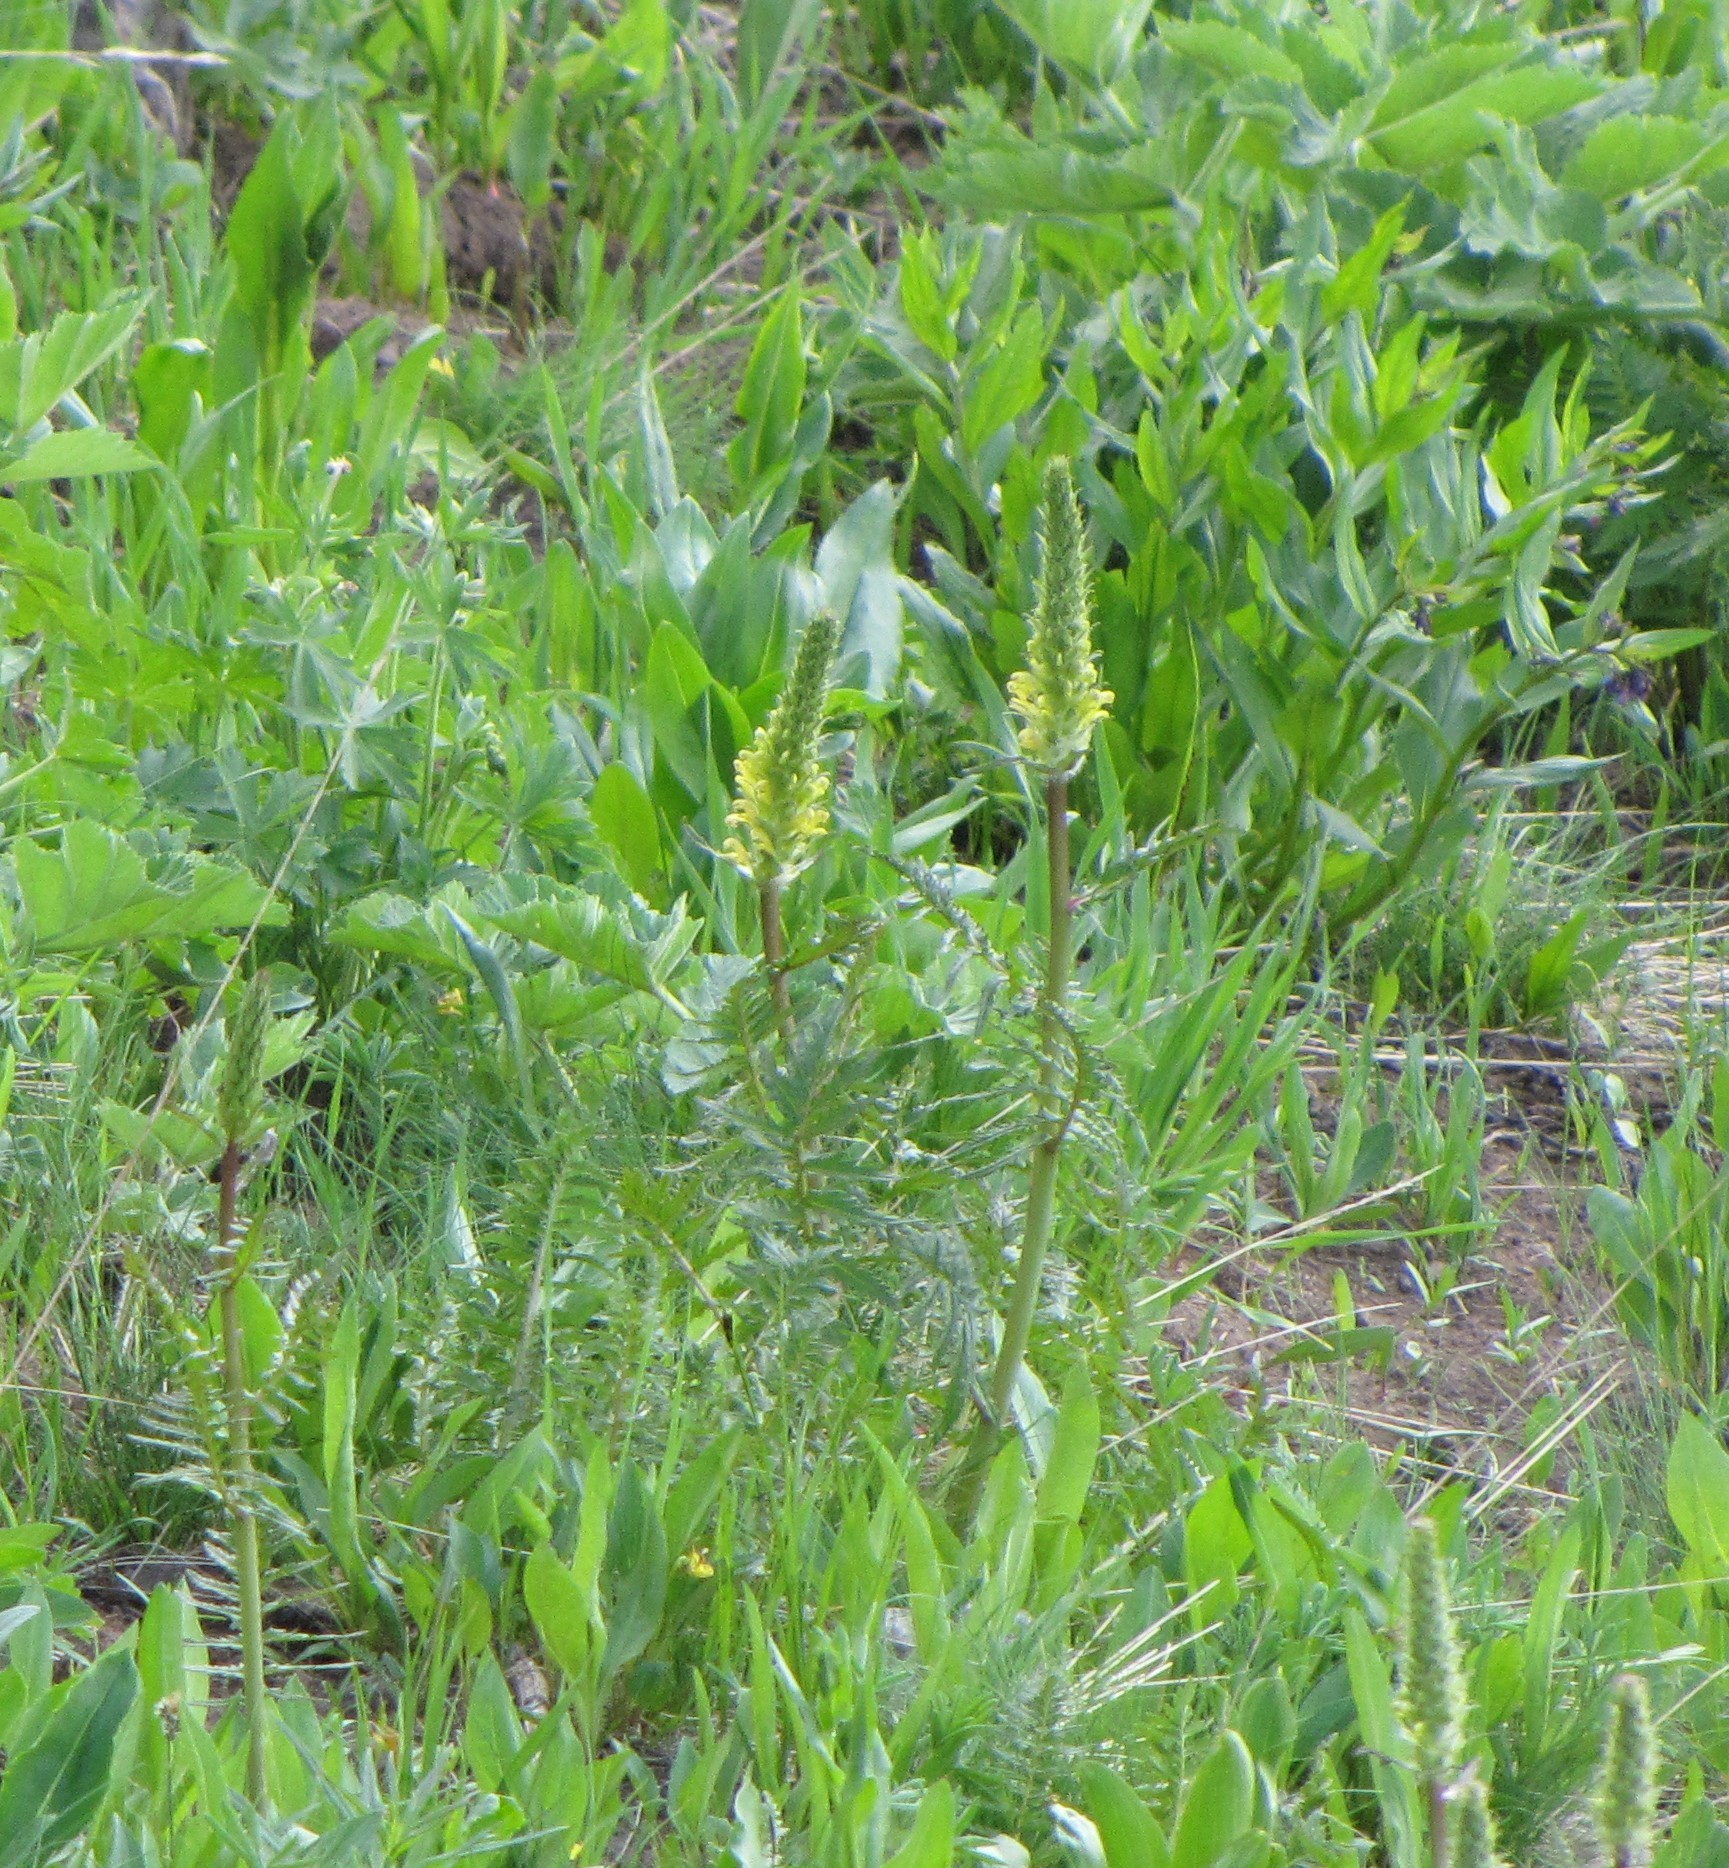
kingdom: Plantae
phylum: Tracheophyta
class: Magnoliopsida
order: Lamiales
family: Orobanchaceae
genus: Pedicularis
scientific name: Pedicularis bracteosa
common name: Bracted lousewort
